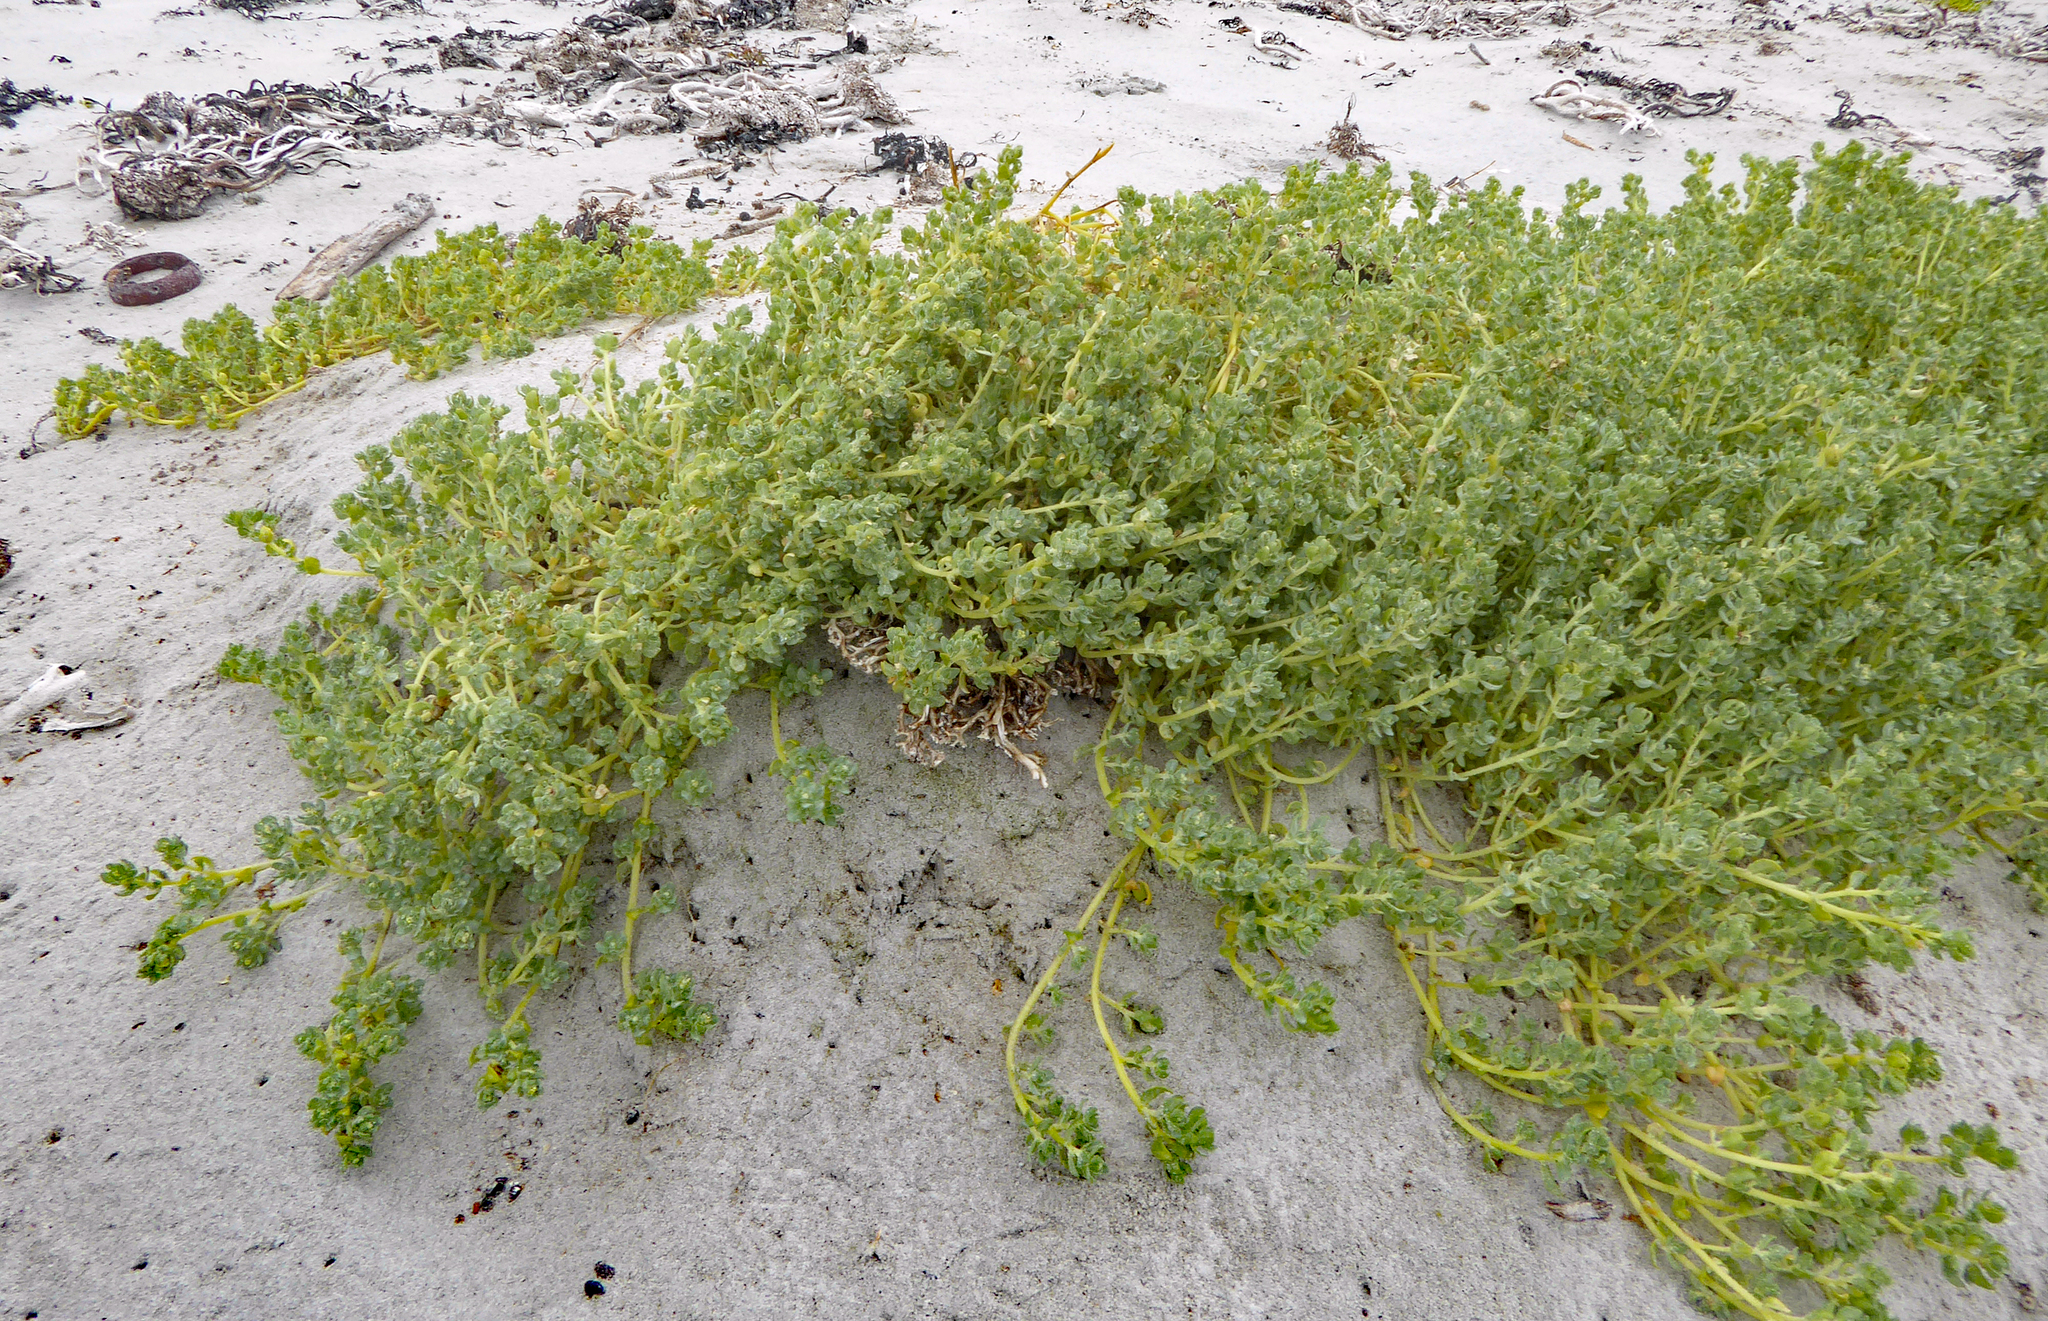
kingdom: Plantae
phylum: Tracheophyta
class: Magnoliopsida
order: Caryophyllales
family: Amaranthaceae
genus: Atriplex
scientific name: Atriplex billardierei
